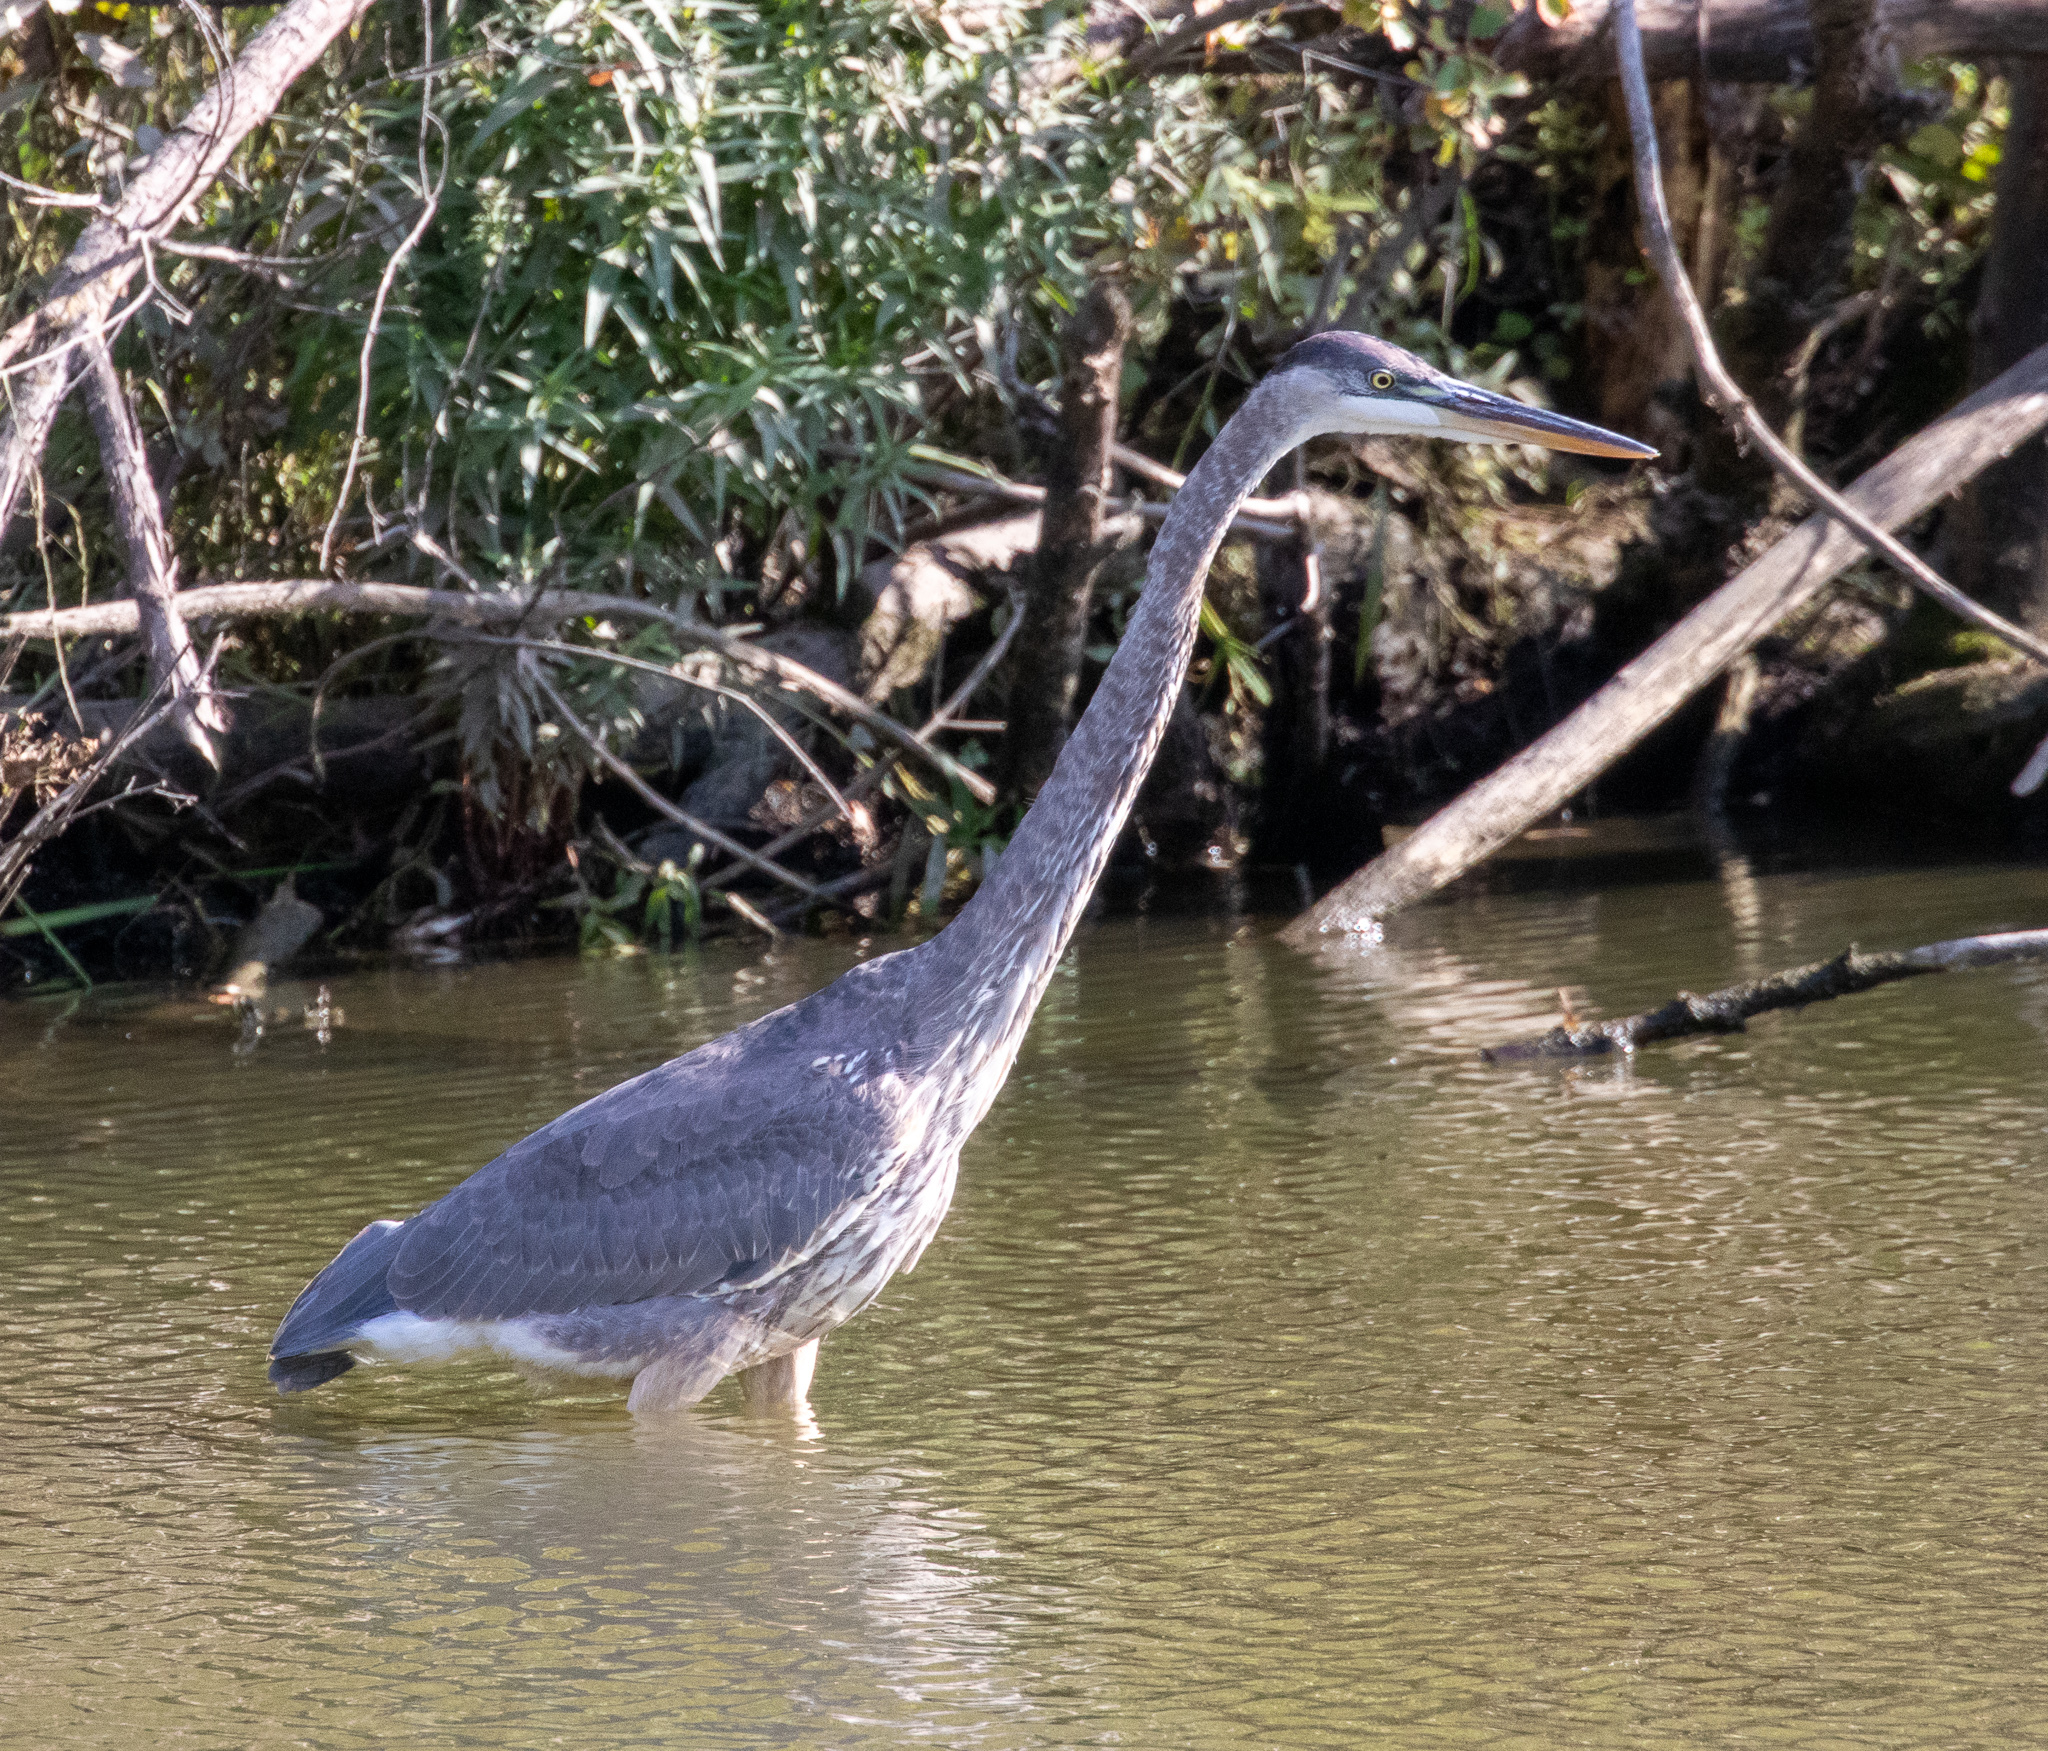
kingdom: Animalia
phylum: Chordata
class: Aves
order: Pelecaniformes
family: Ardeidae
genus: Ardea
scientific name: Ardea herodias
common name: Great blue heron
